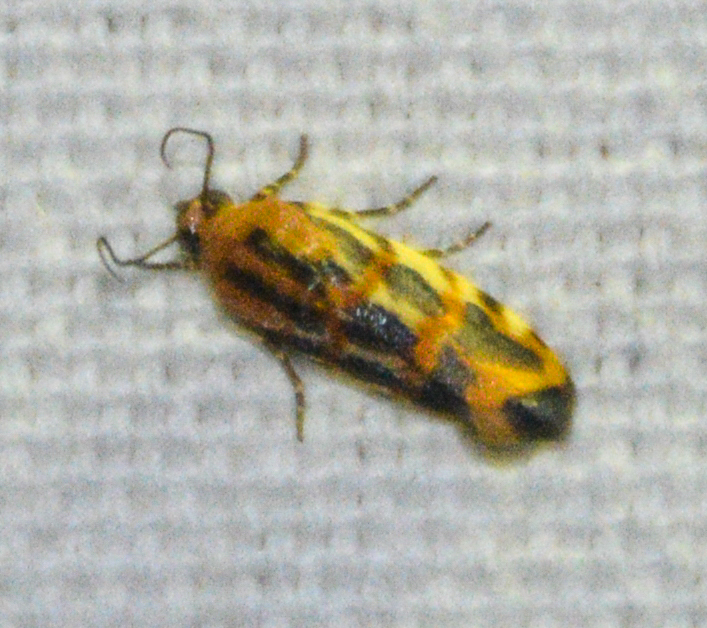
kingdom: Animalia
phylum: Arthropoda
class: Insecta
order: Lepidoptera
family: Noctuidae
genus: Acontia
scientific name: Acontia leo
